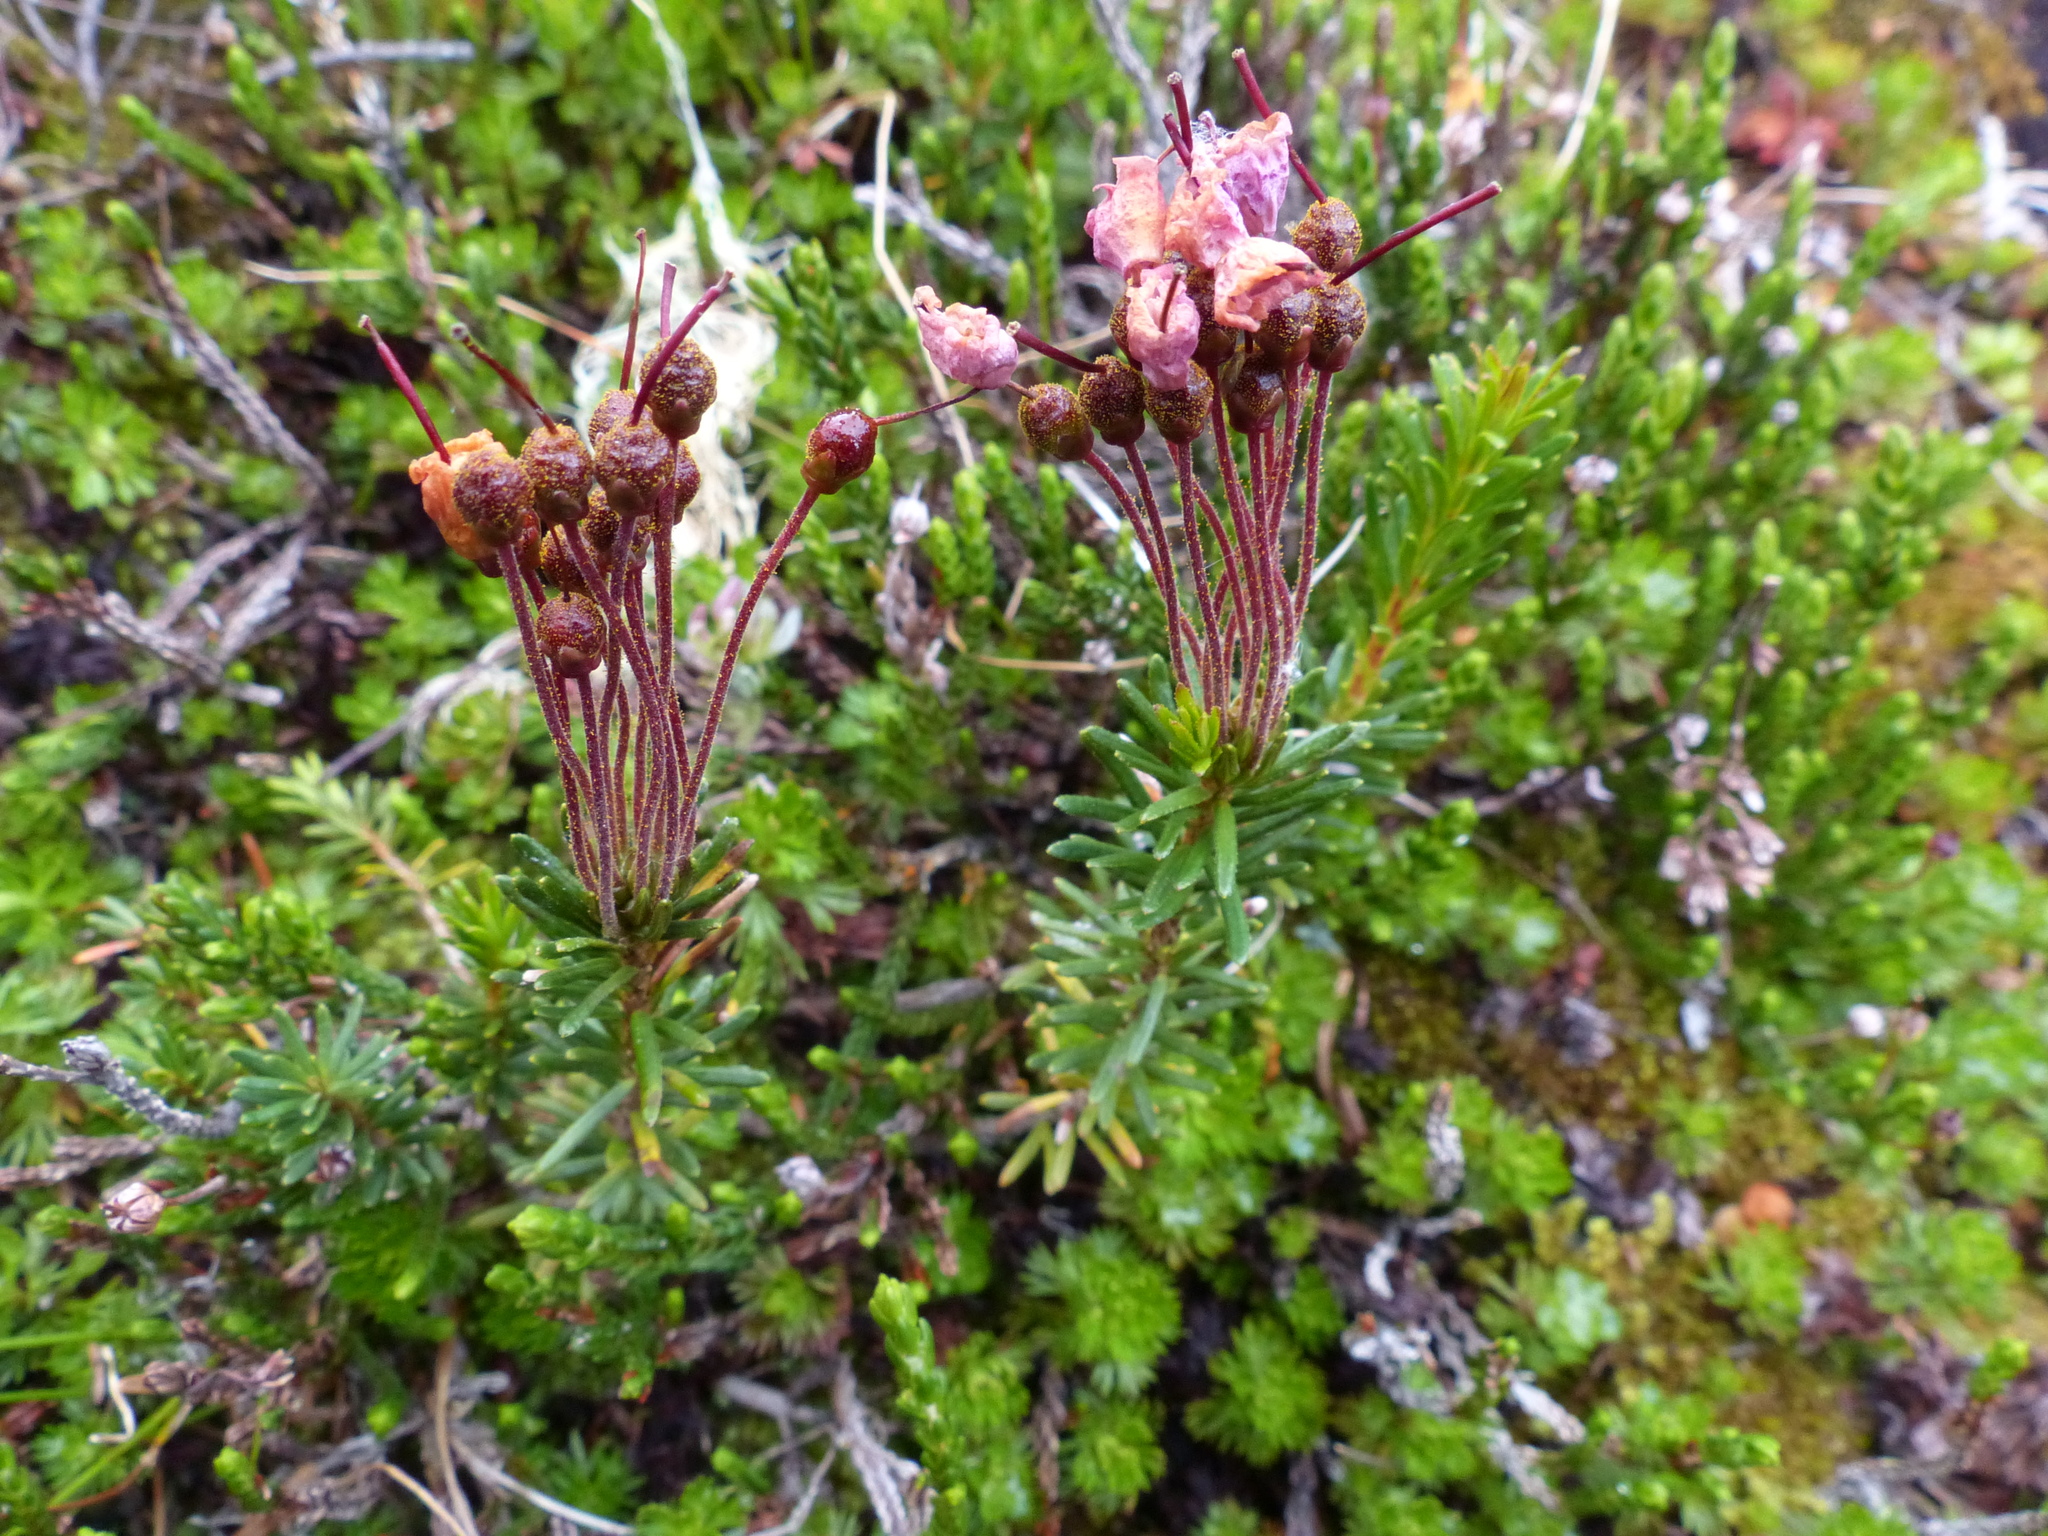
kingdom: Plantae
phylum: Tracheophyta
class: Magnoliopsida
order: Ericales
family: Ericaceae
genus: Phyllodoce
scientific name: Phyllodoce empetriformis
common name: Pink mountain heather
